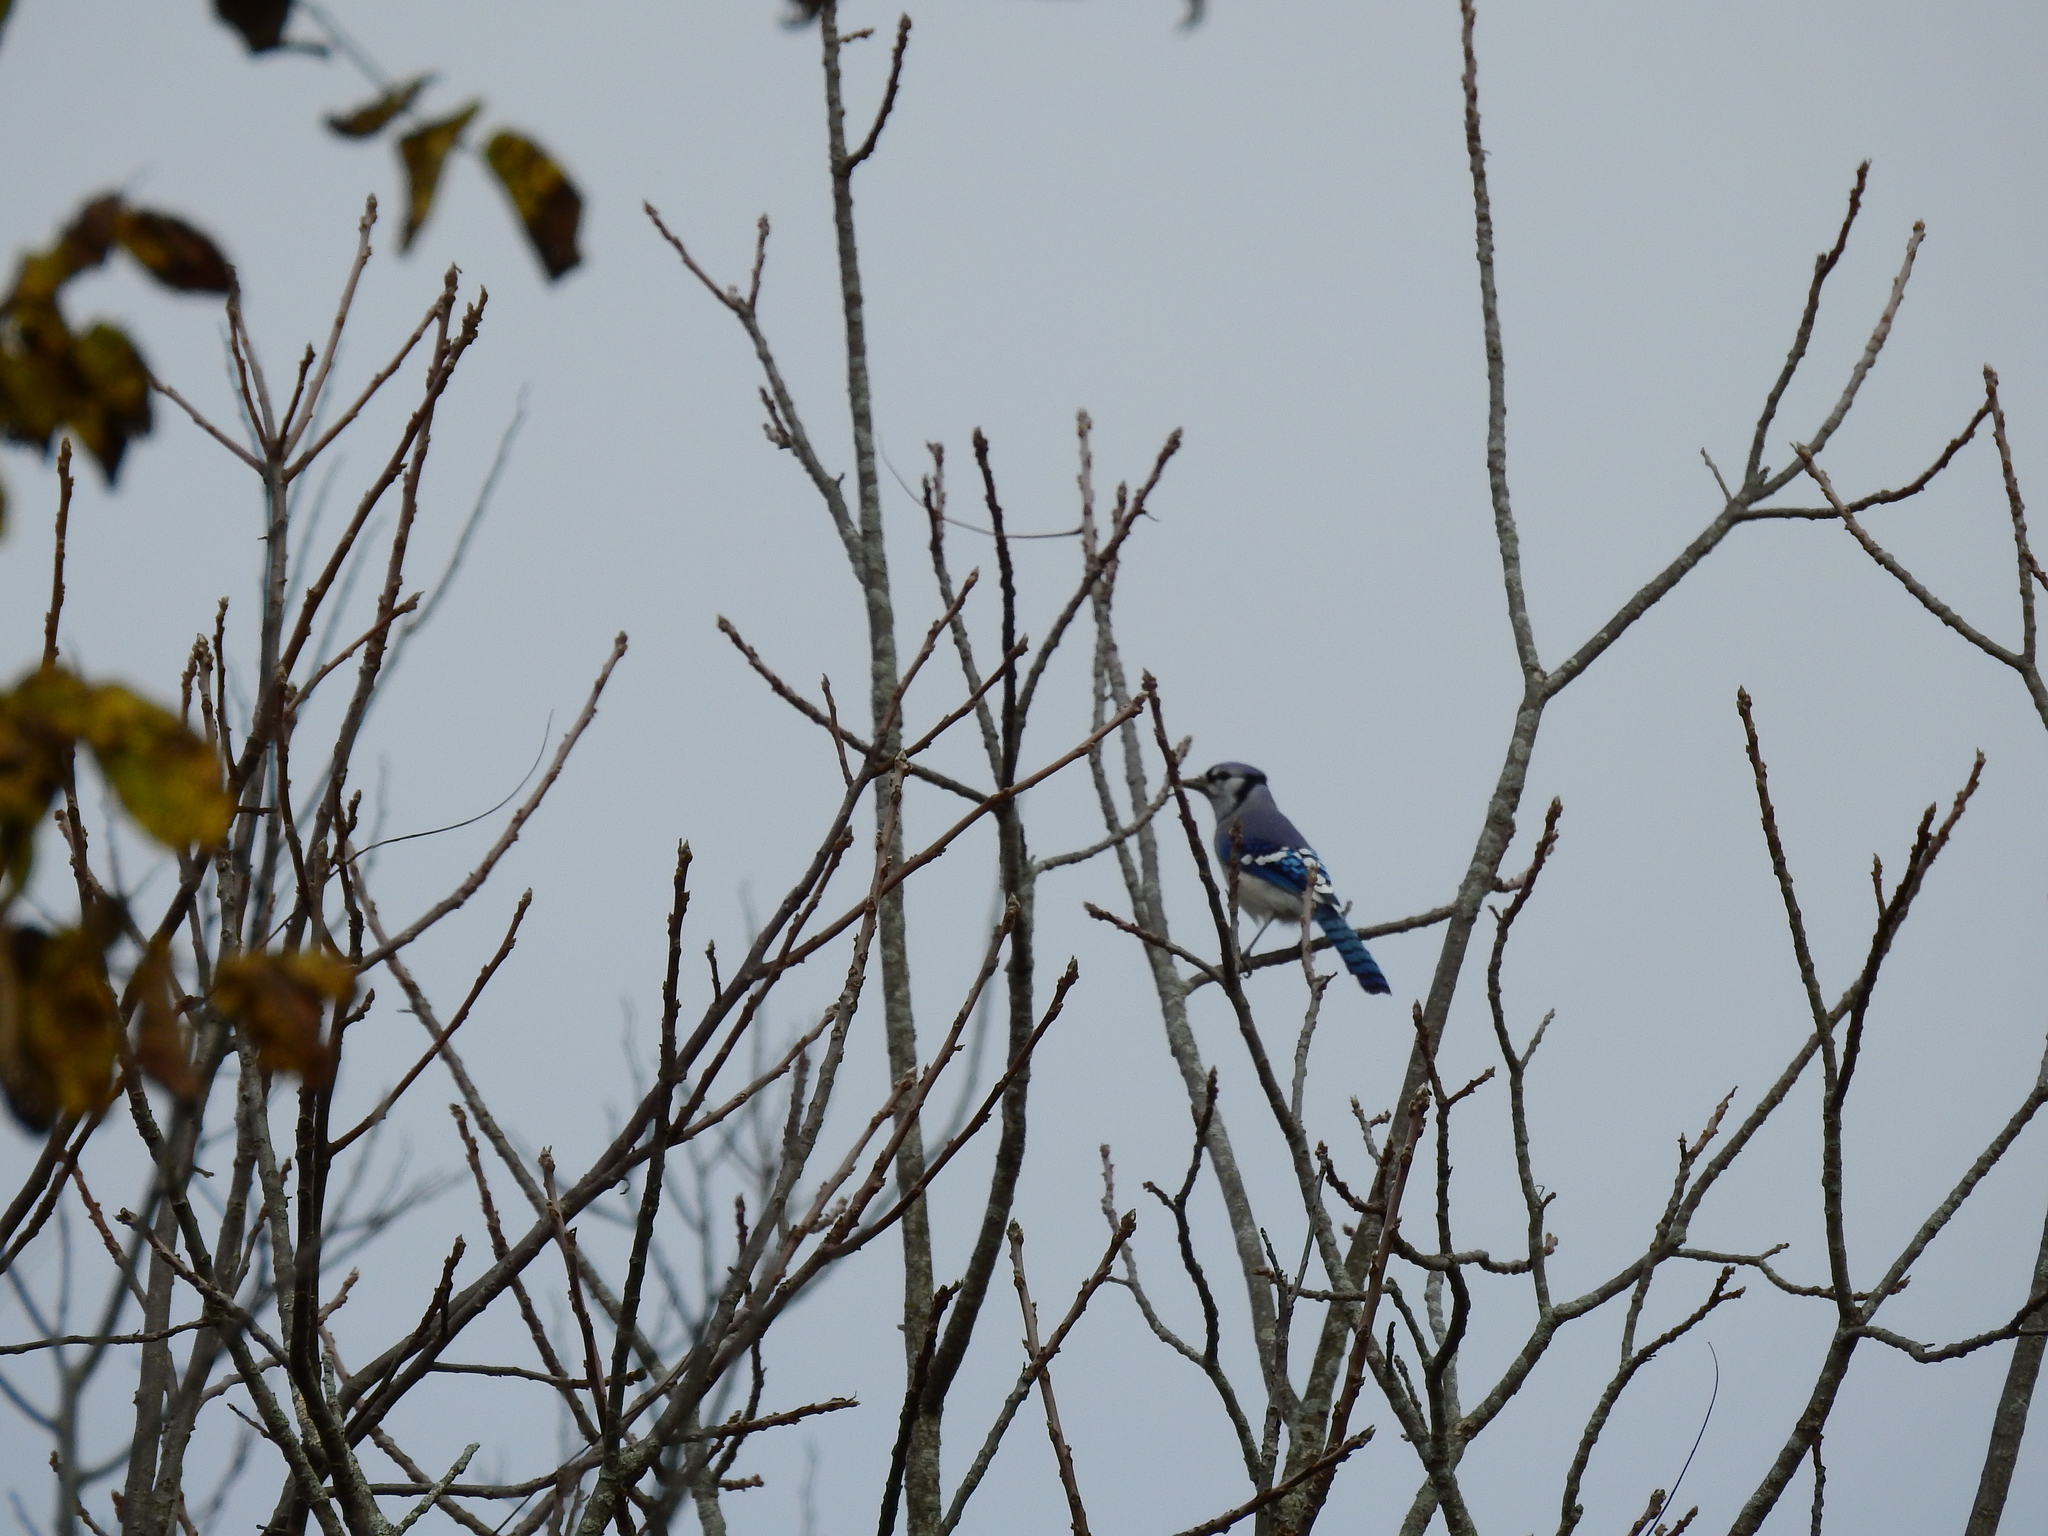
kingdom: Animalia
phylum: Chordata
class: Aves
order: Passeriformes
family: Corvidae
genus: Cyanocitta
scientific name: Cyanocitta cristata
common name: Blue jay
